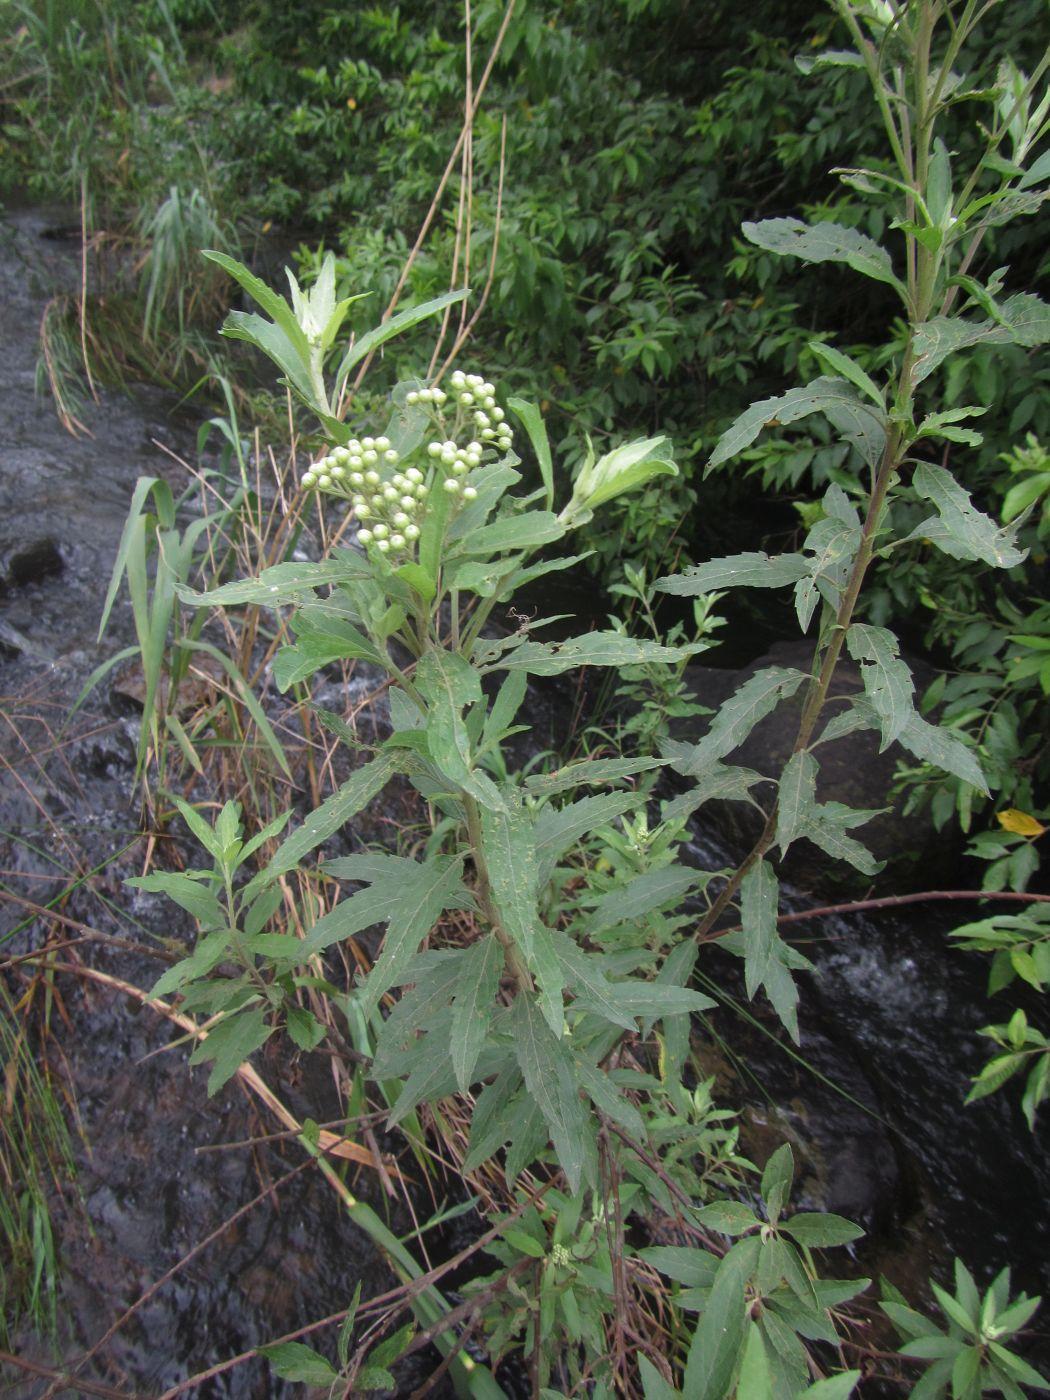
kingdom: Plantae
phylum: Tracheophyta
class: Magnoliopsida
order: Asterales
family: Asteraceae
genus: Nidorella
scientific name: Nidorella ivifolia
